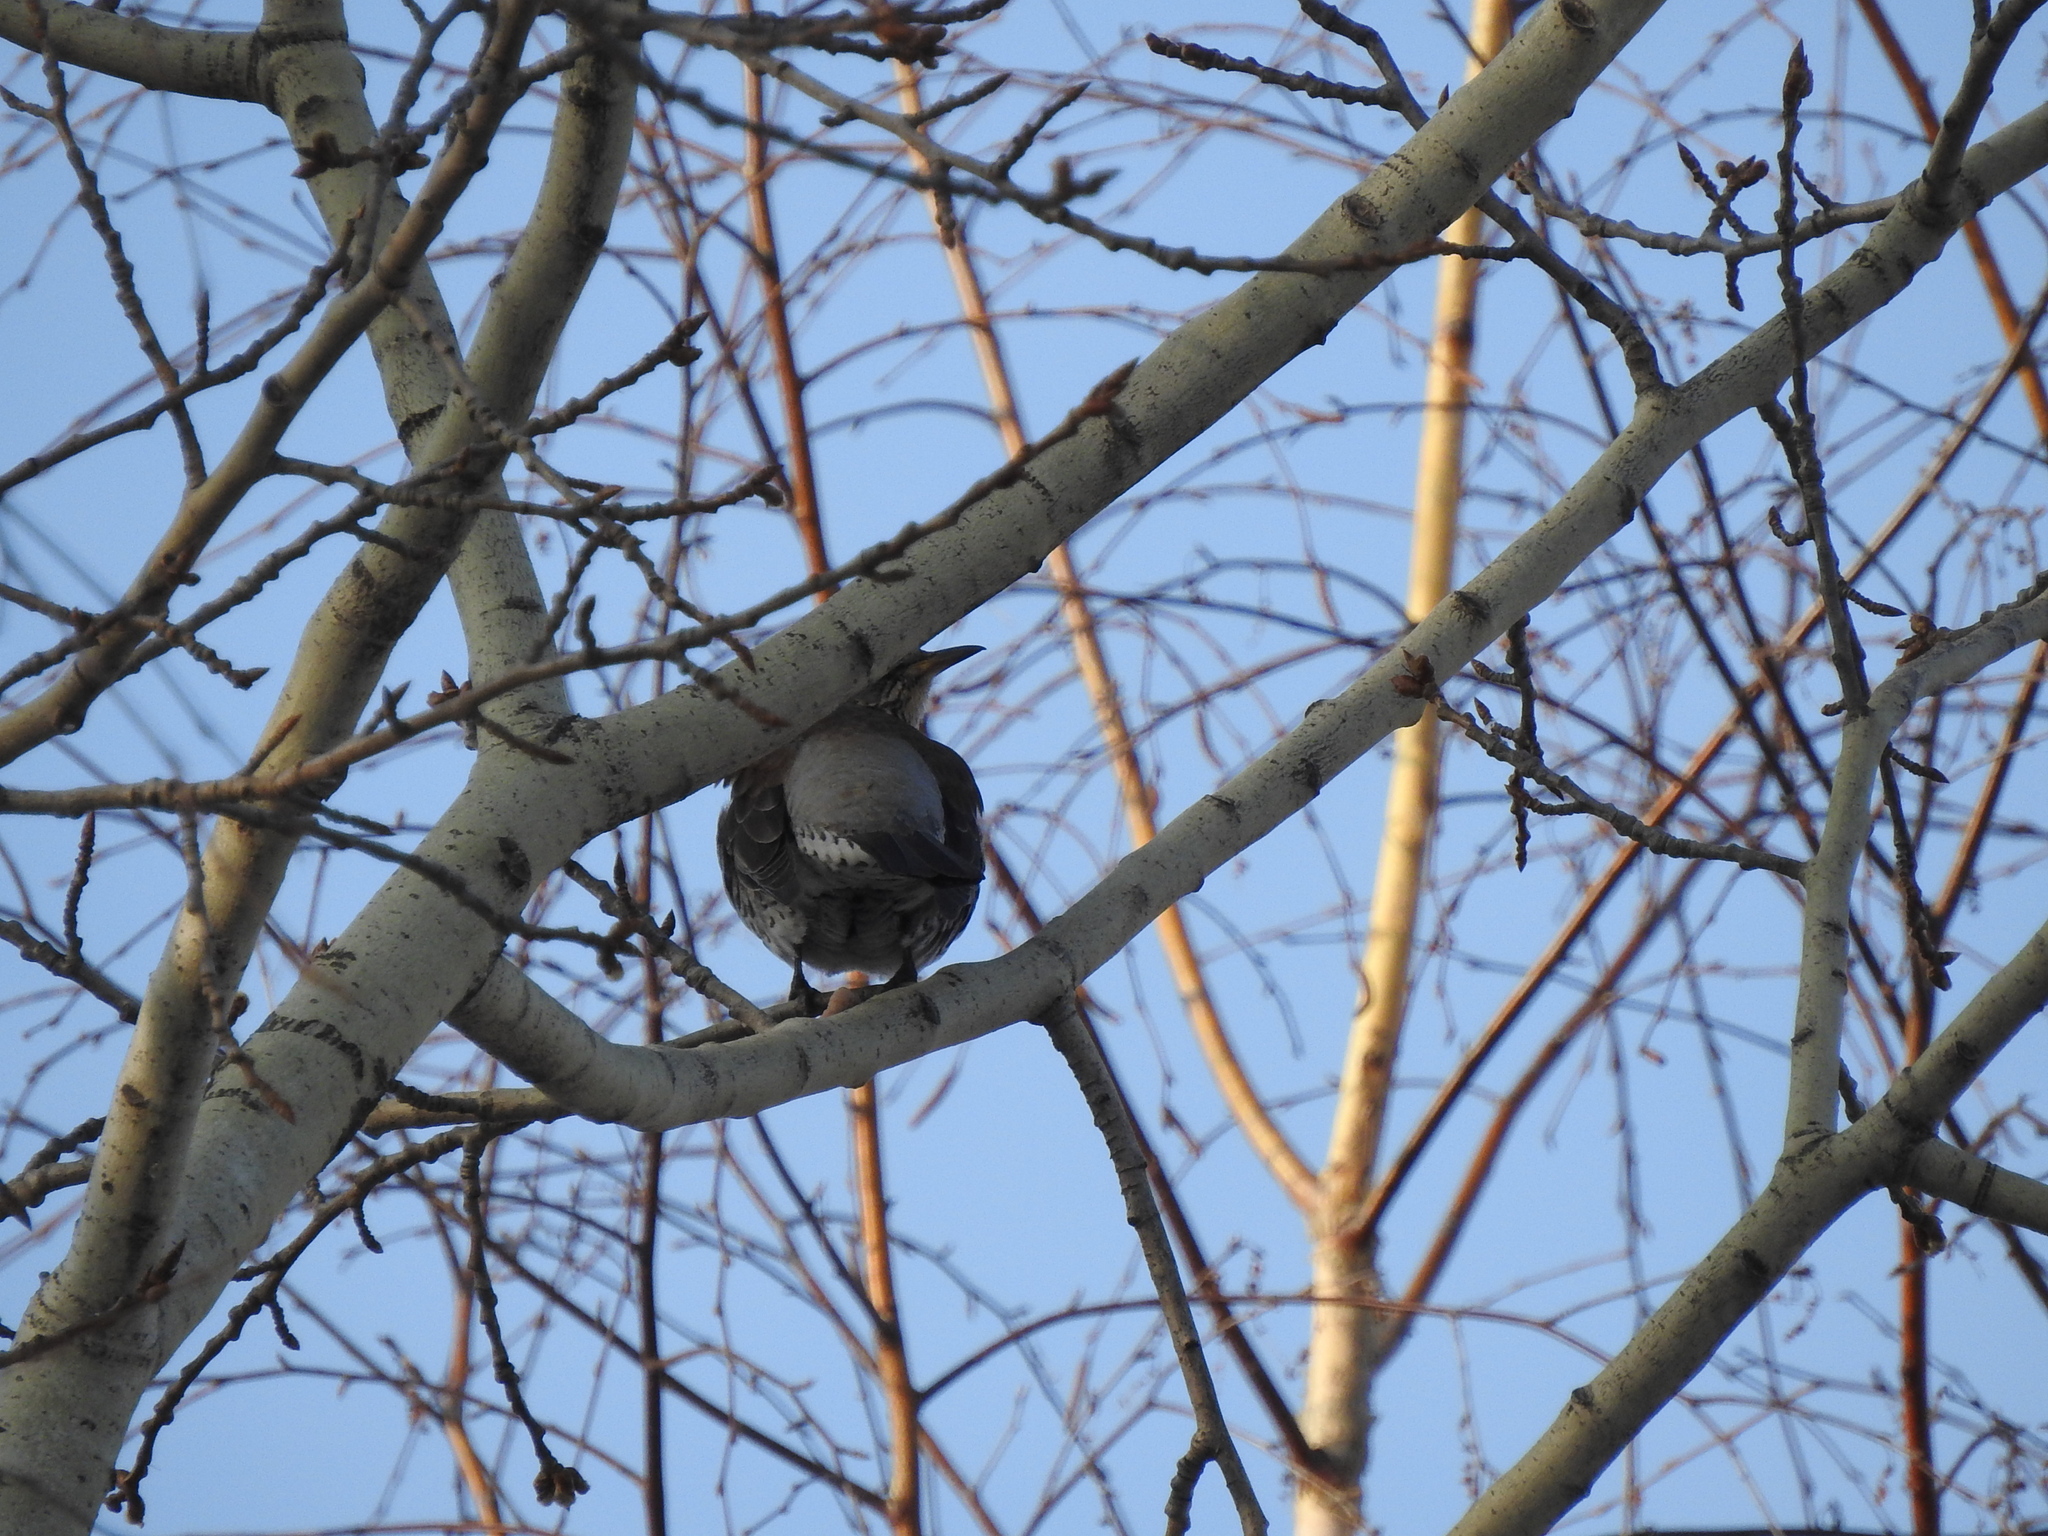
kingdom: Animalia
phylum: Chordata
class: Aves
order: Passeriformes
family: Turdidae
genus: Turdus
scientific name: Turdus pilaris
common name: Fieldfare
